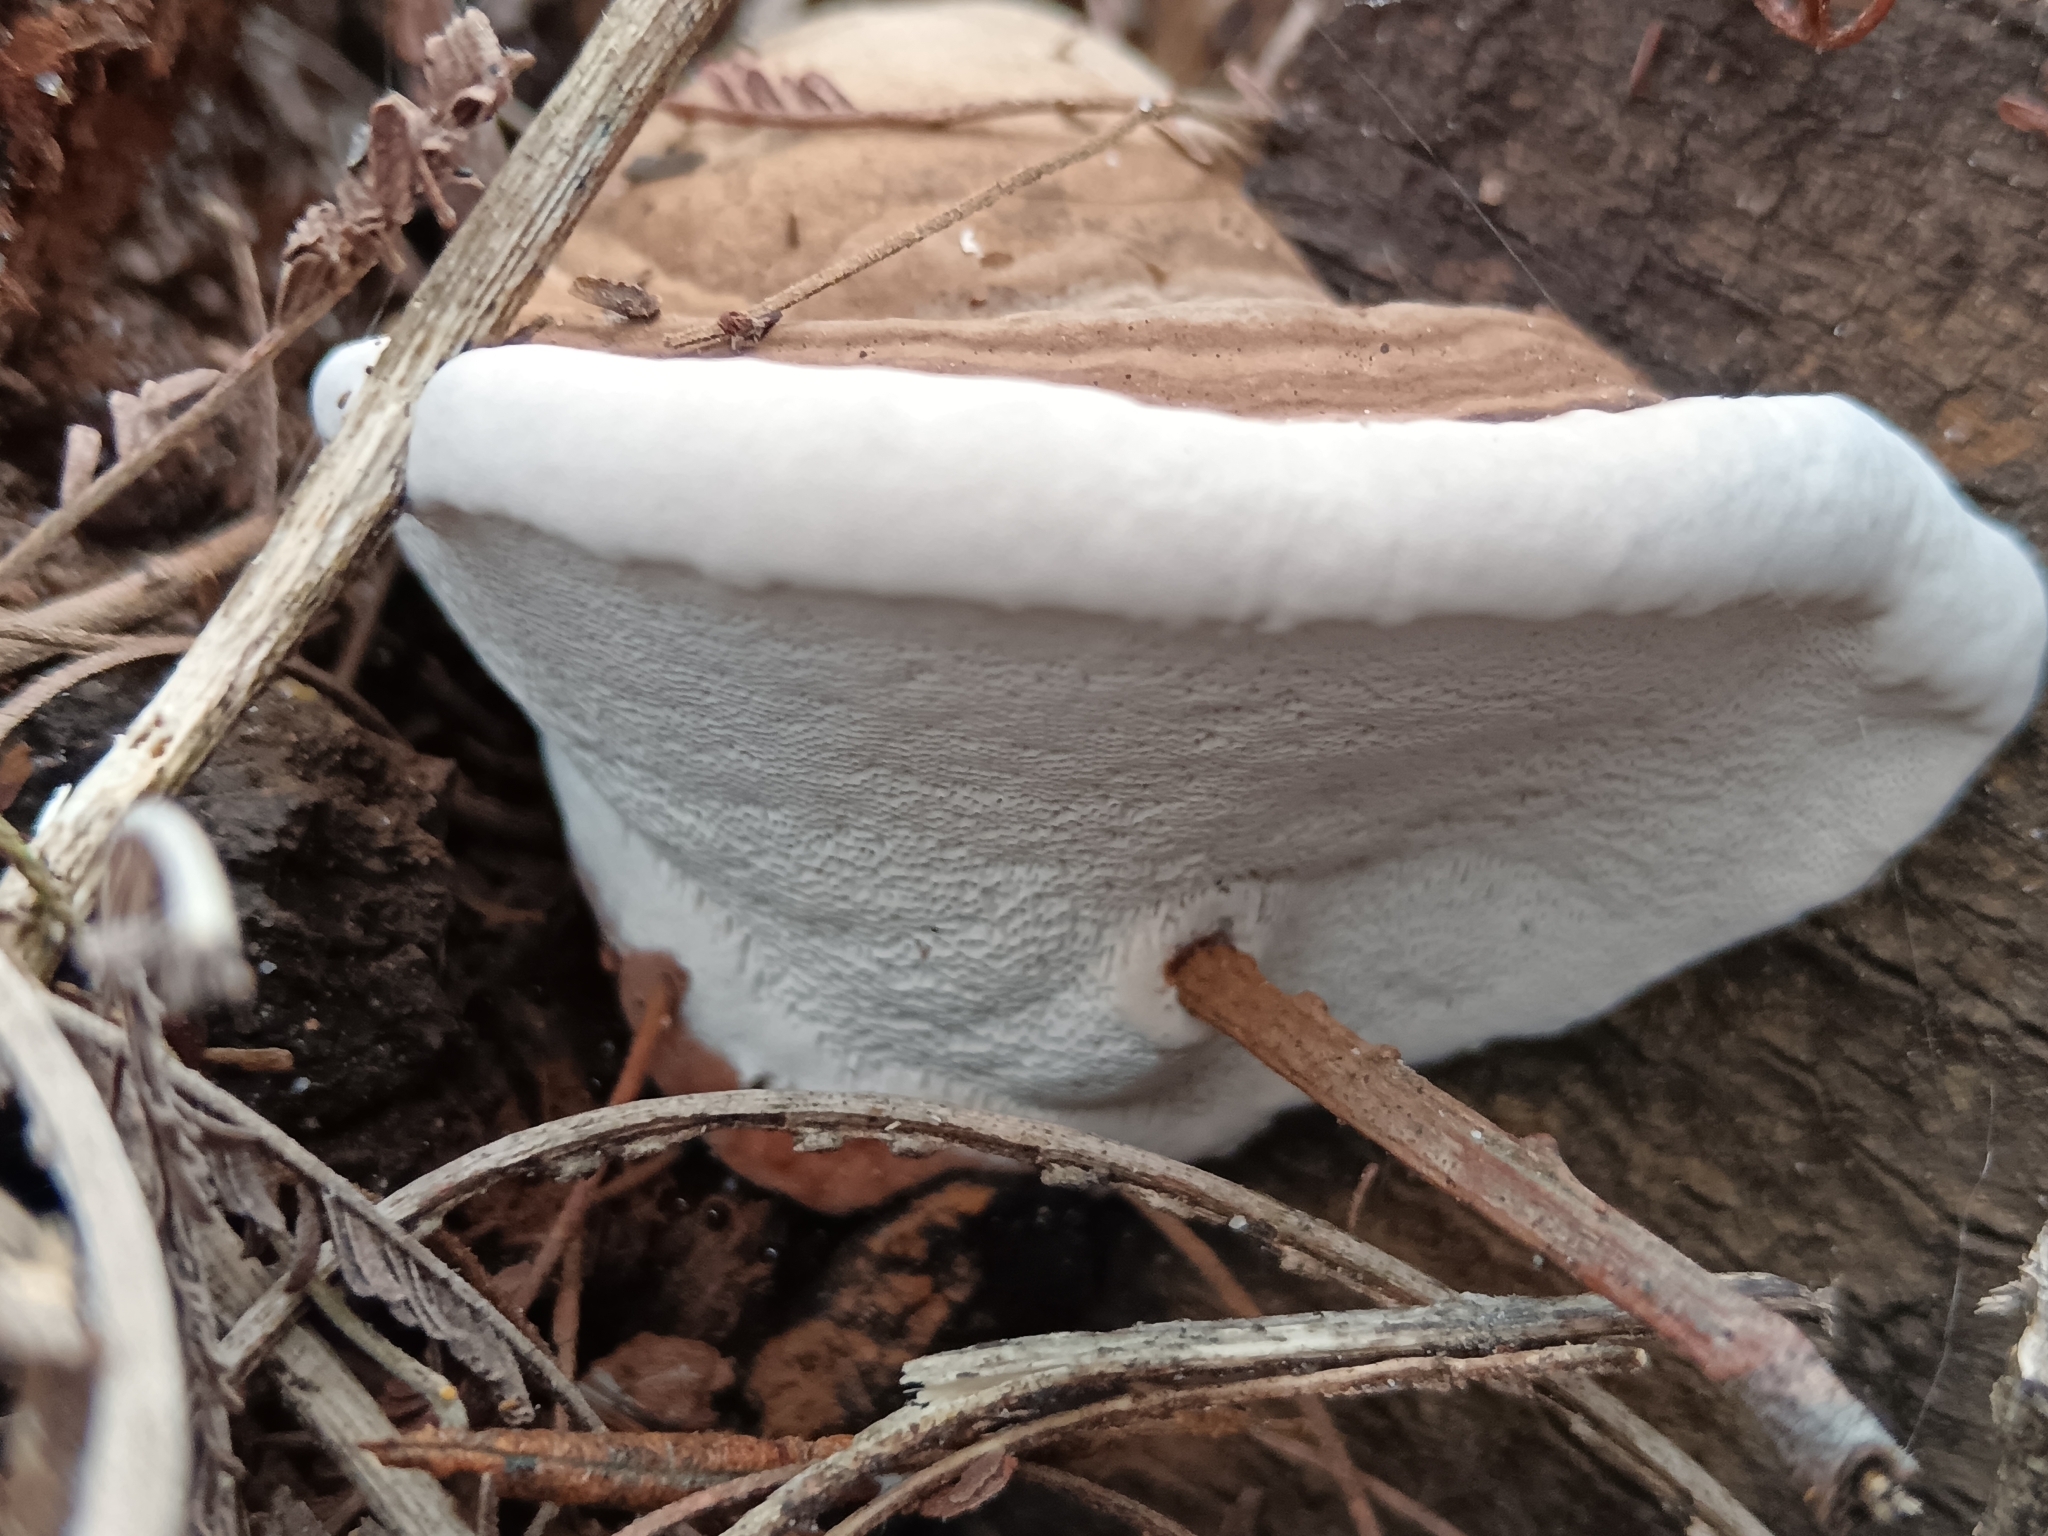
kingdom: Fungi
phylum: Basidiomycota
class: Agaricomycetes
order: Polyporales
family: Polyporaceae
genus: Ganoderma
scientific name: Ganoderma applanatum
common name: Artist's bracket
